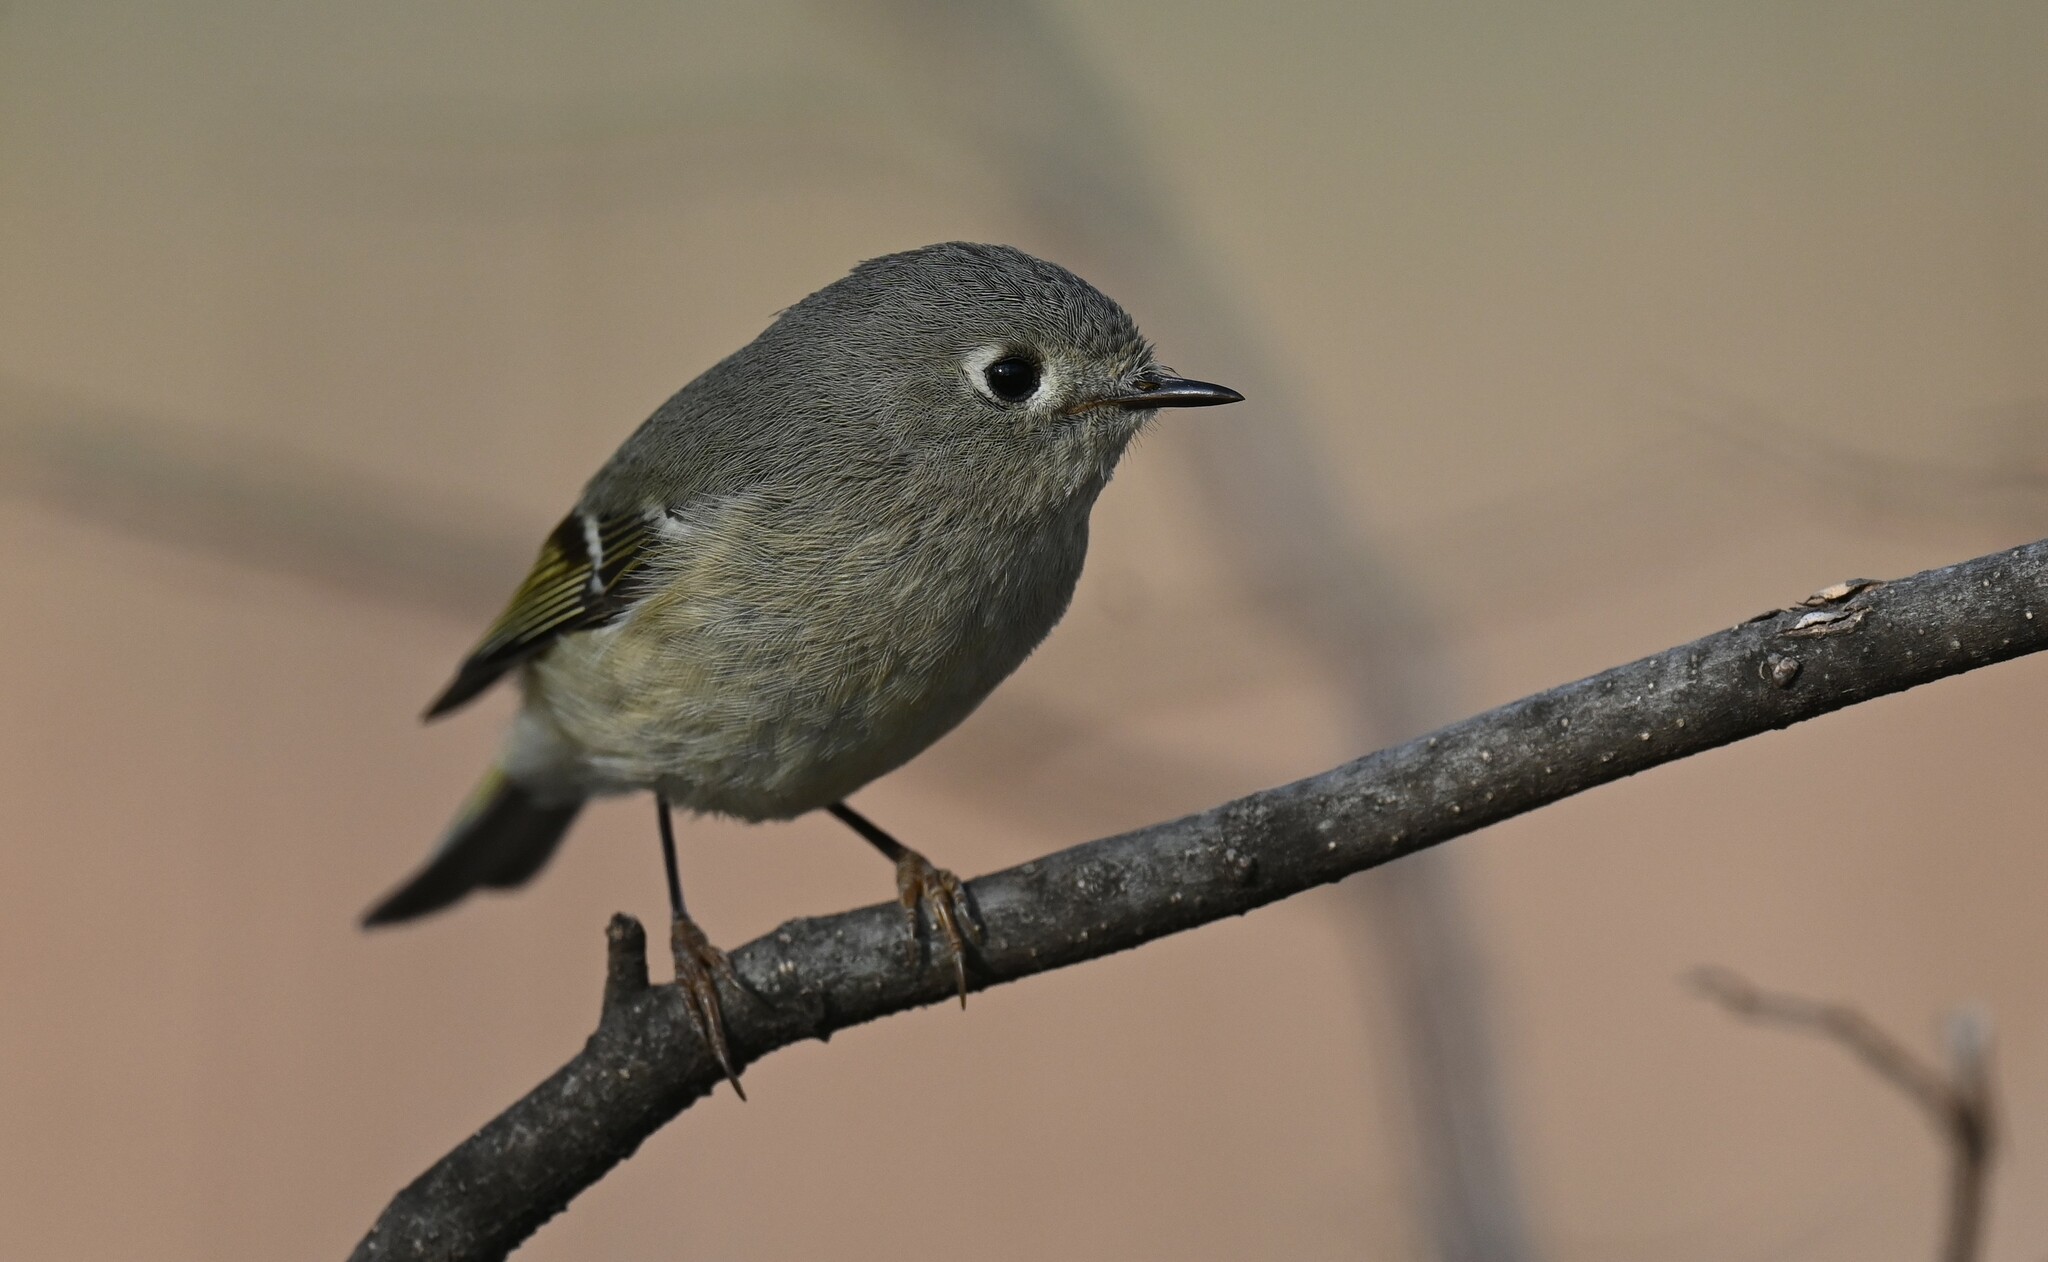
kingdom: Animalia
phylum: Chordata
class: Aves
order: Passeriformes
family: Regulidae
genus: Regulus
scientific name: Regulus calendula
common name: Ruby-crowned kinglet
